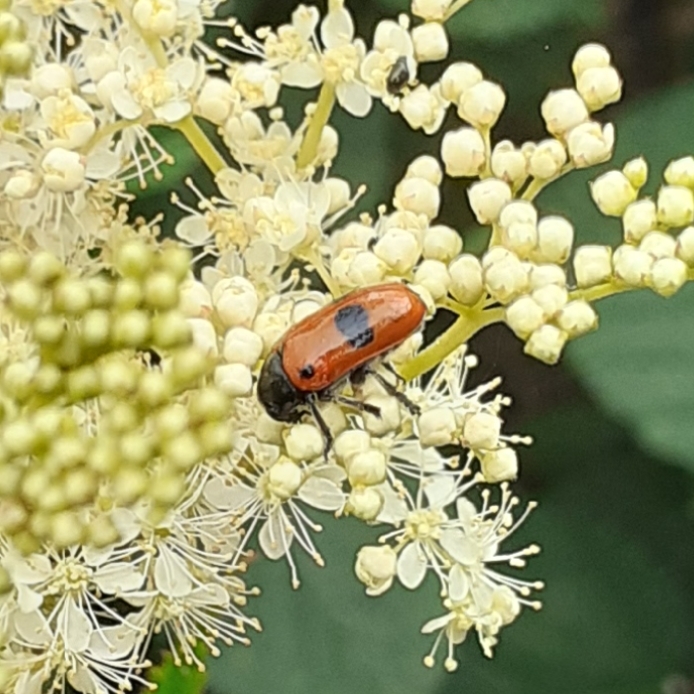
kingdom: Animalia
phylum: Arthropoda
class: Insecta
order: Coleoptera
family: Chrysomelidae
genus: Clytra
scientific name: Clytra laeviuscula
